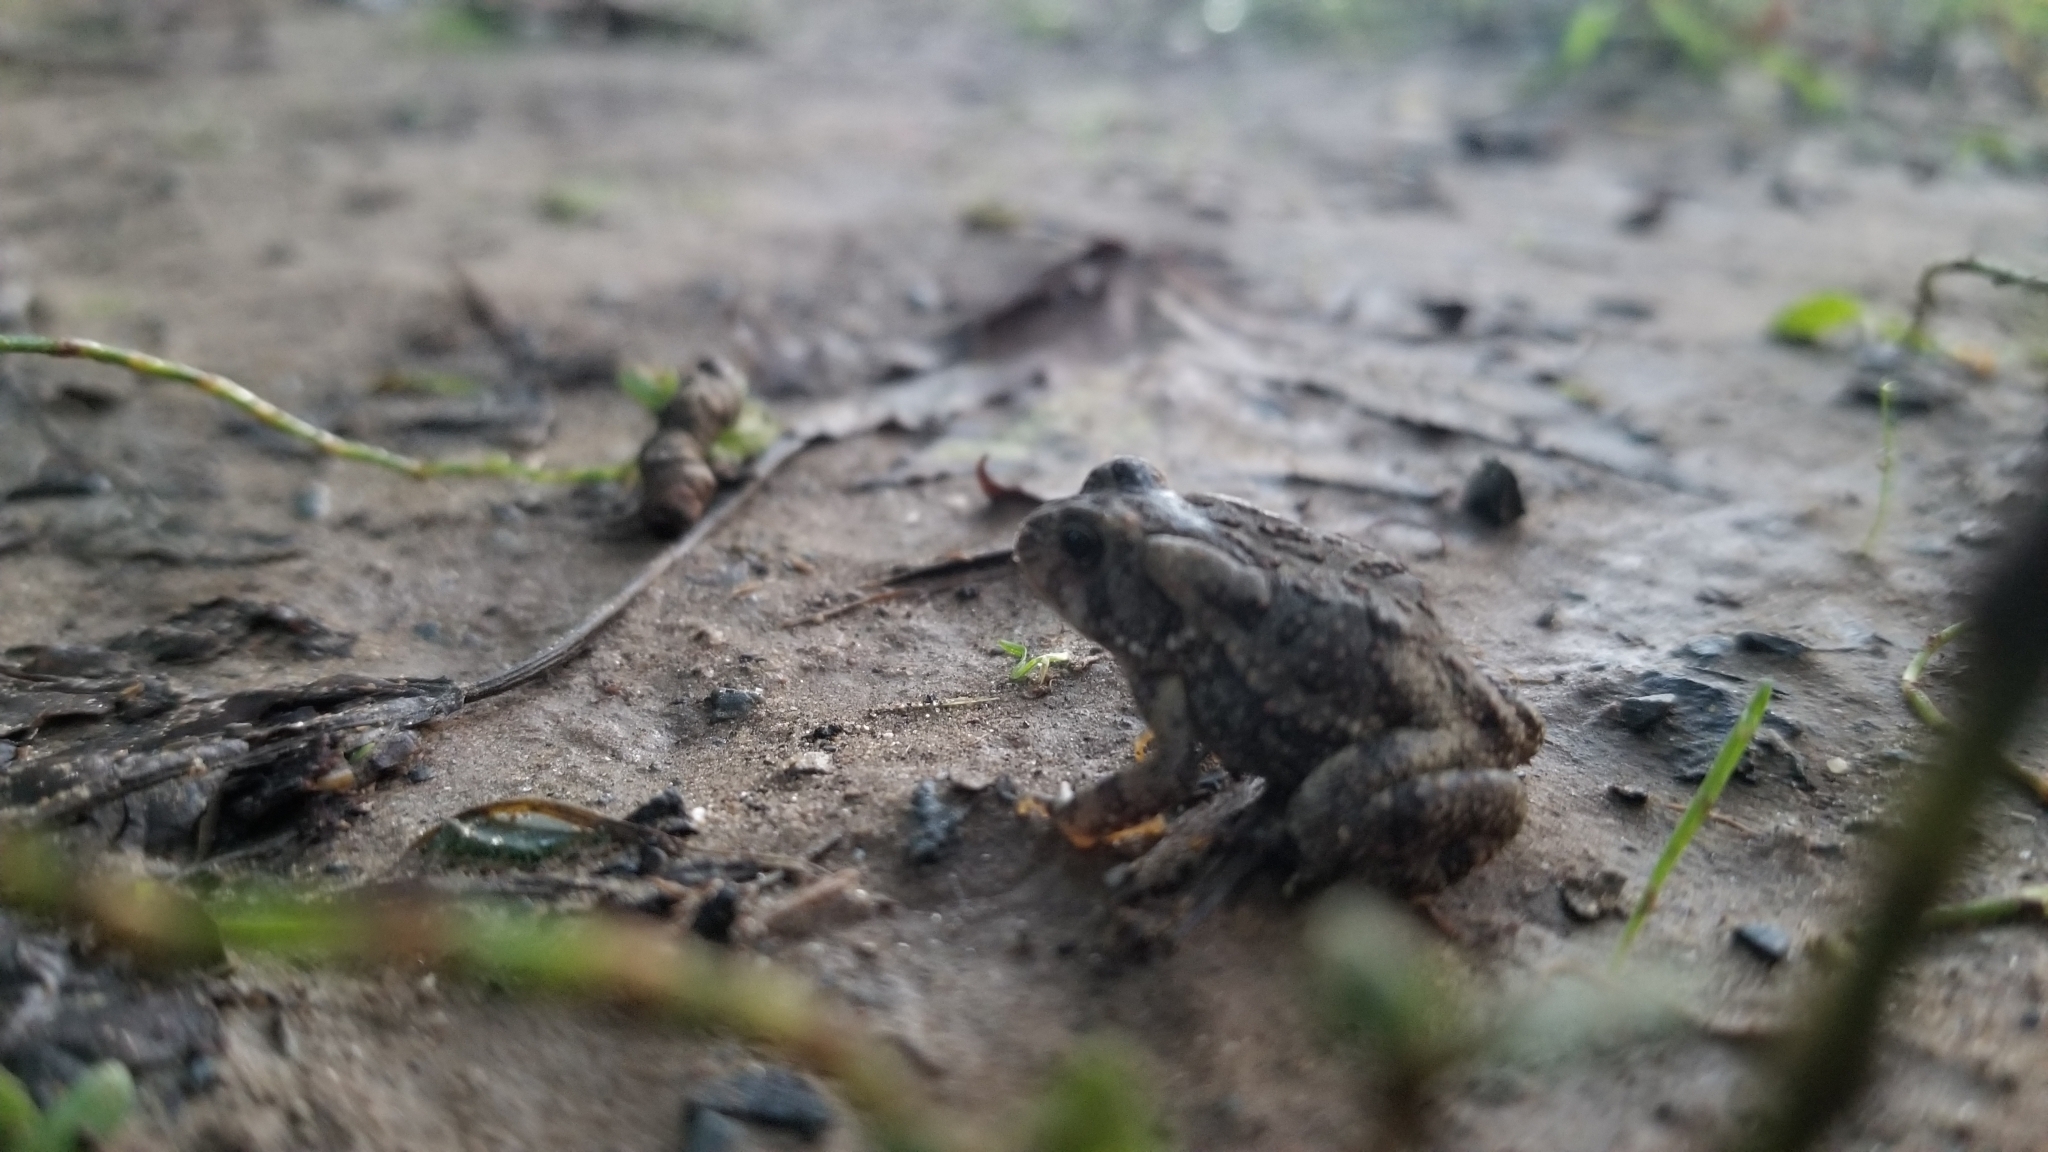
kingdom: Animalia
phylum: Chordata
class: Amphibia
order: Anura
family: Bufonidae
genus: Anaxyrus
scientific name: Anaxyrus fowleri
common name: Fowler's toad
